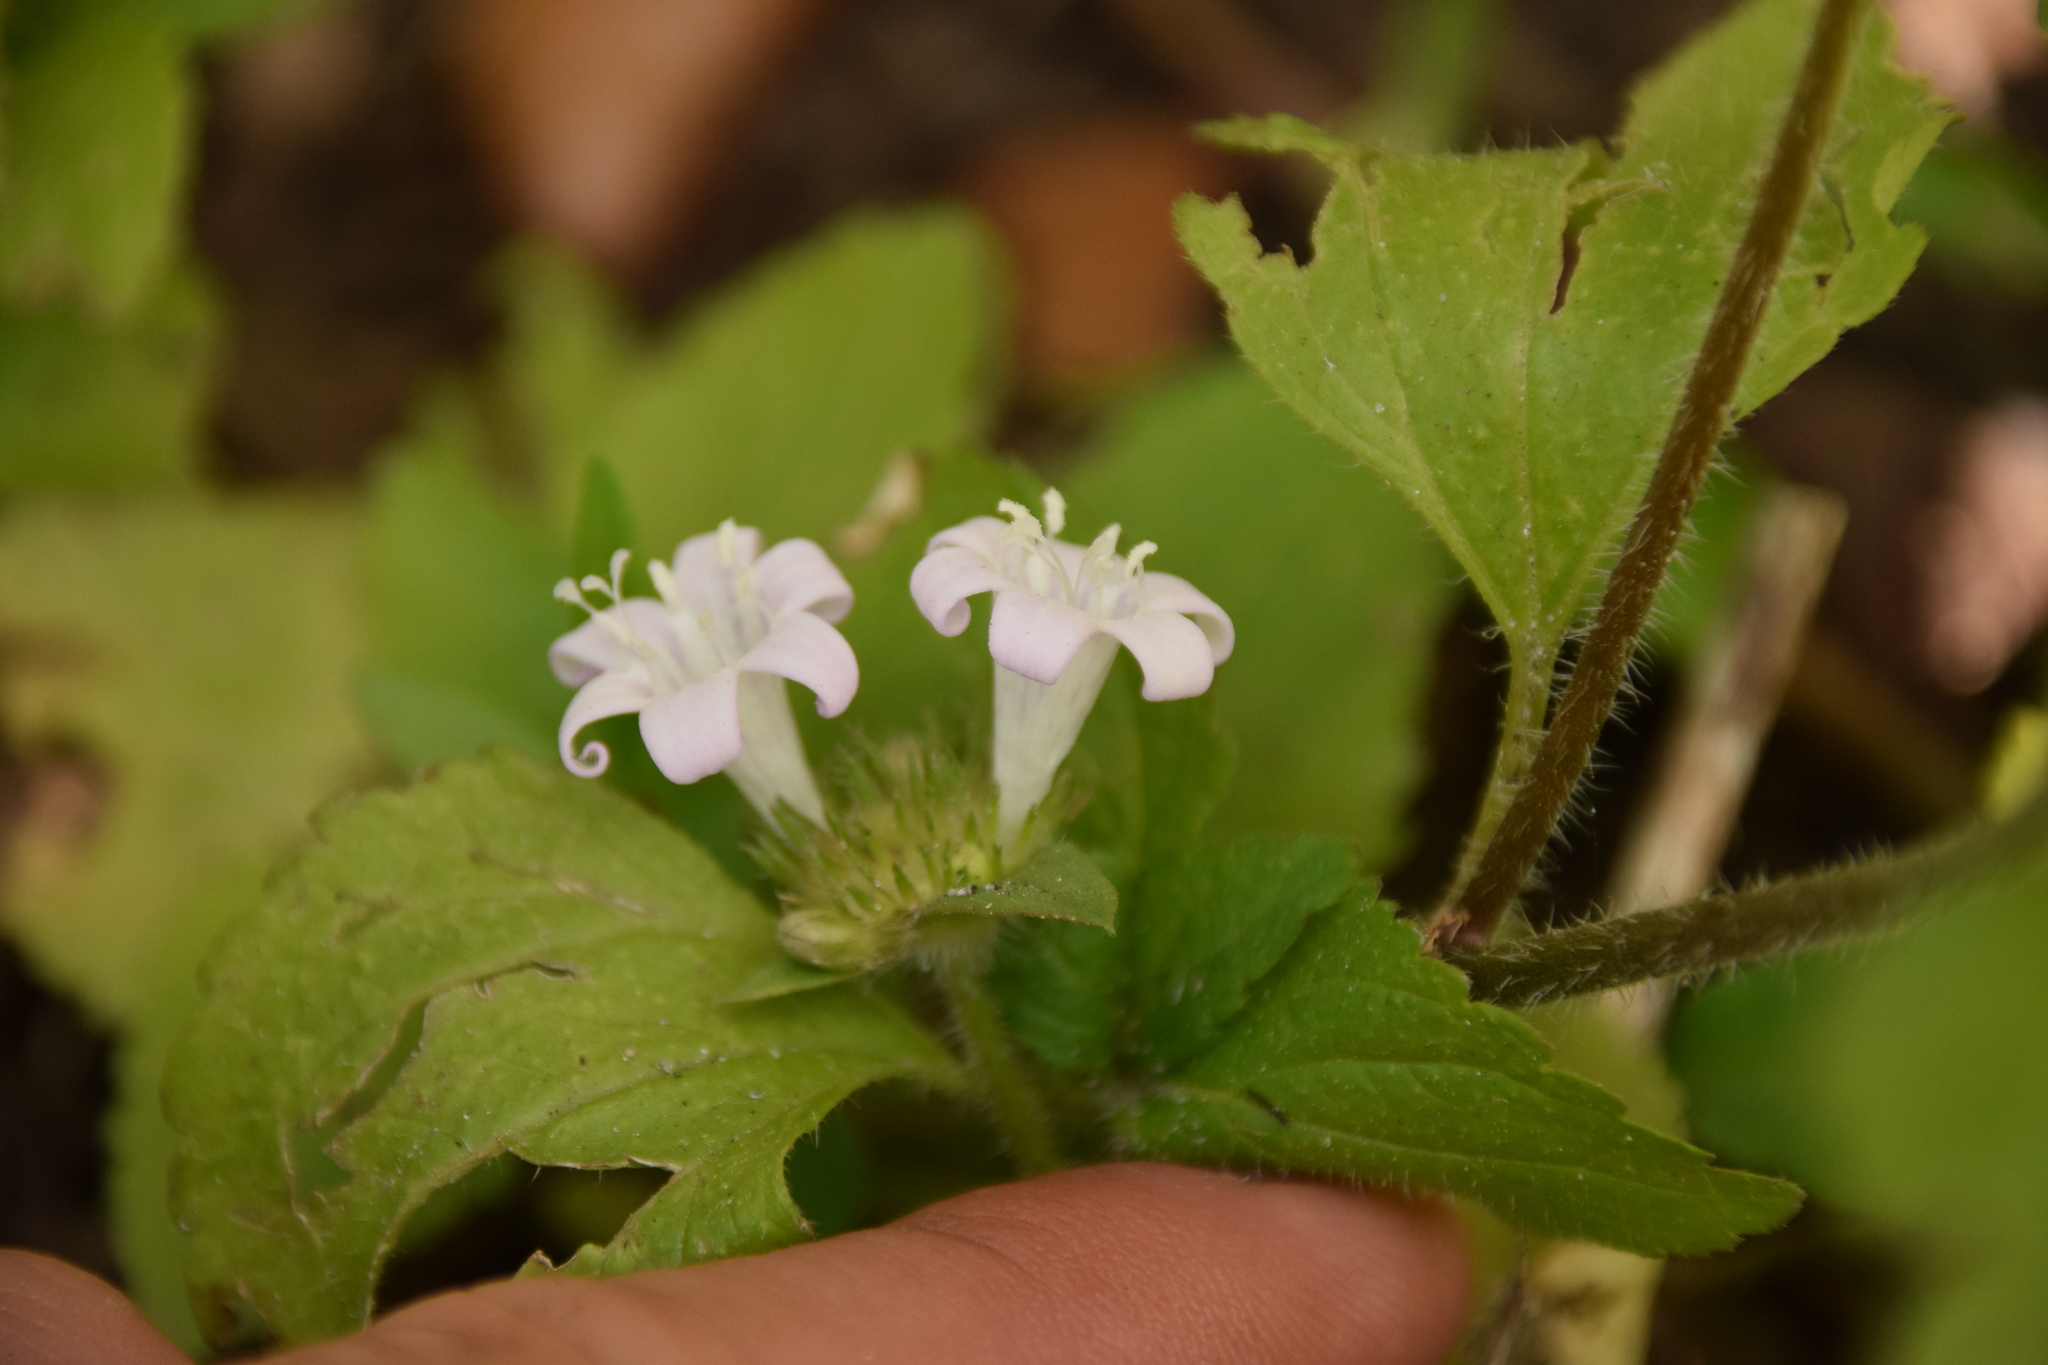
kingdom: Plantae
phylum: Tracheophyta
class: Magnoliopsida
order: Gentianales
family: Rubiaceae
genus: Richardia
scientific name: Richardia grandiflora
